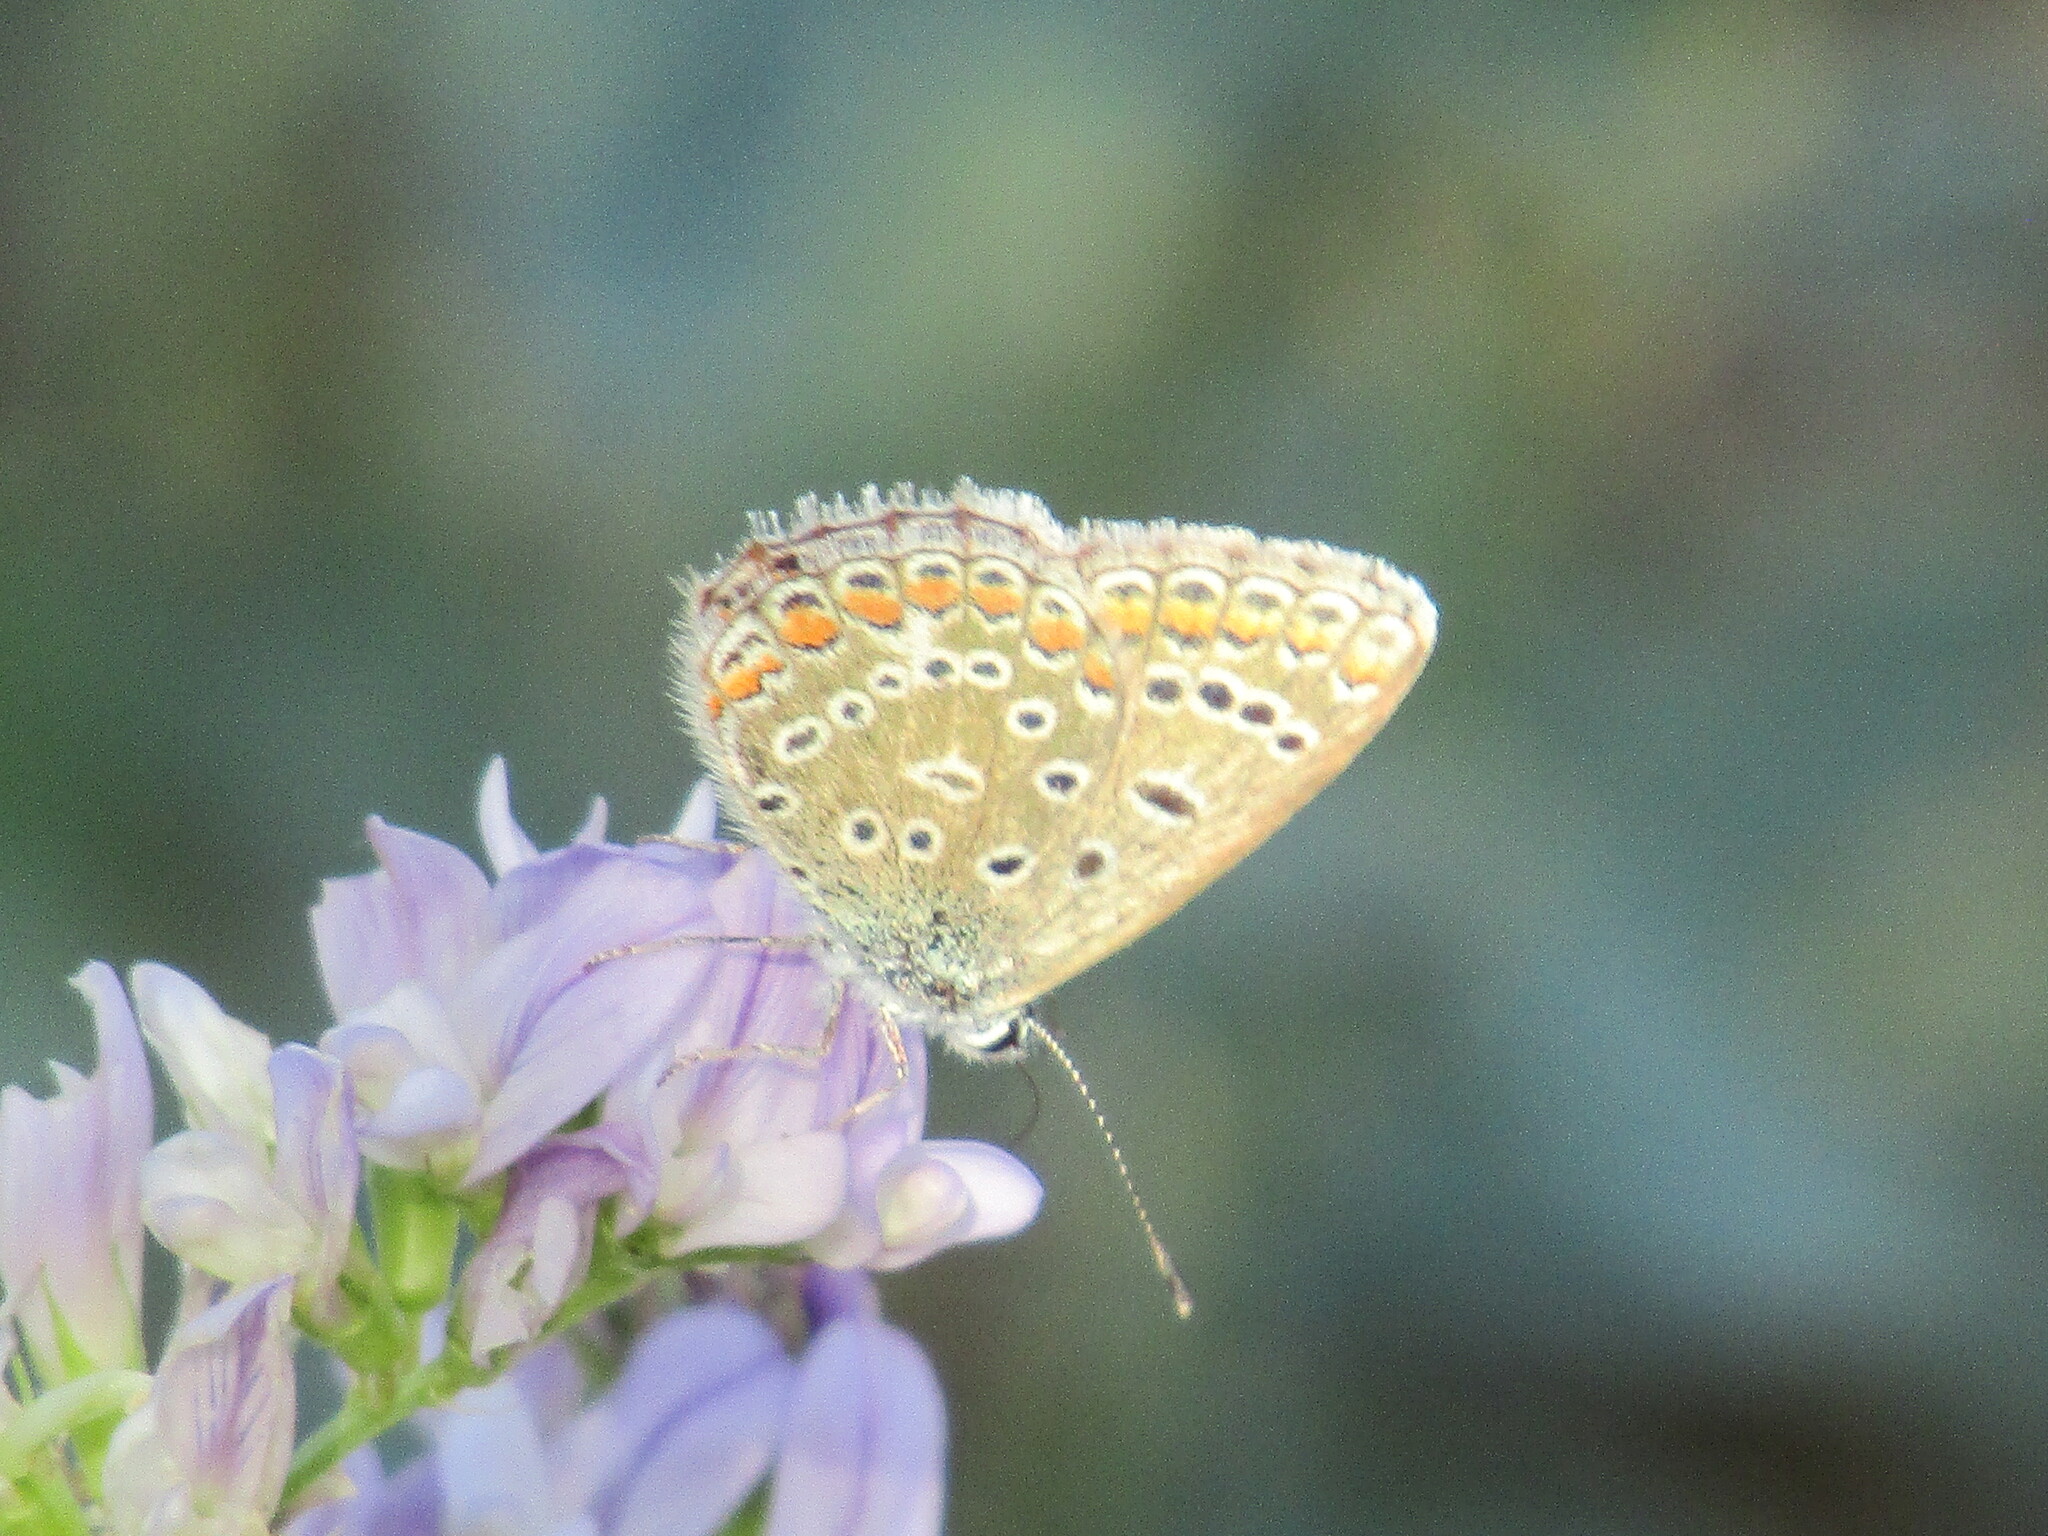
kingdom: Animalia
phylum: Arthropoda
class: Insecta
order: Lepidoptera
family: Lycaenidae
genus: Polyommatus
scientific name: Polyommatus icarus
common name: Common blue
